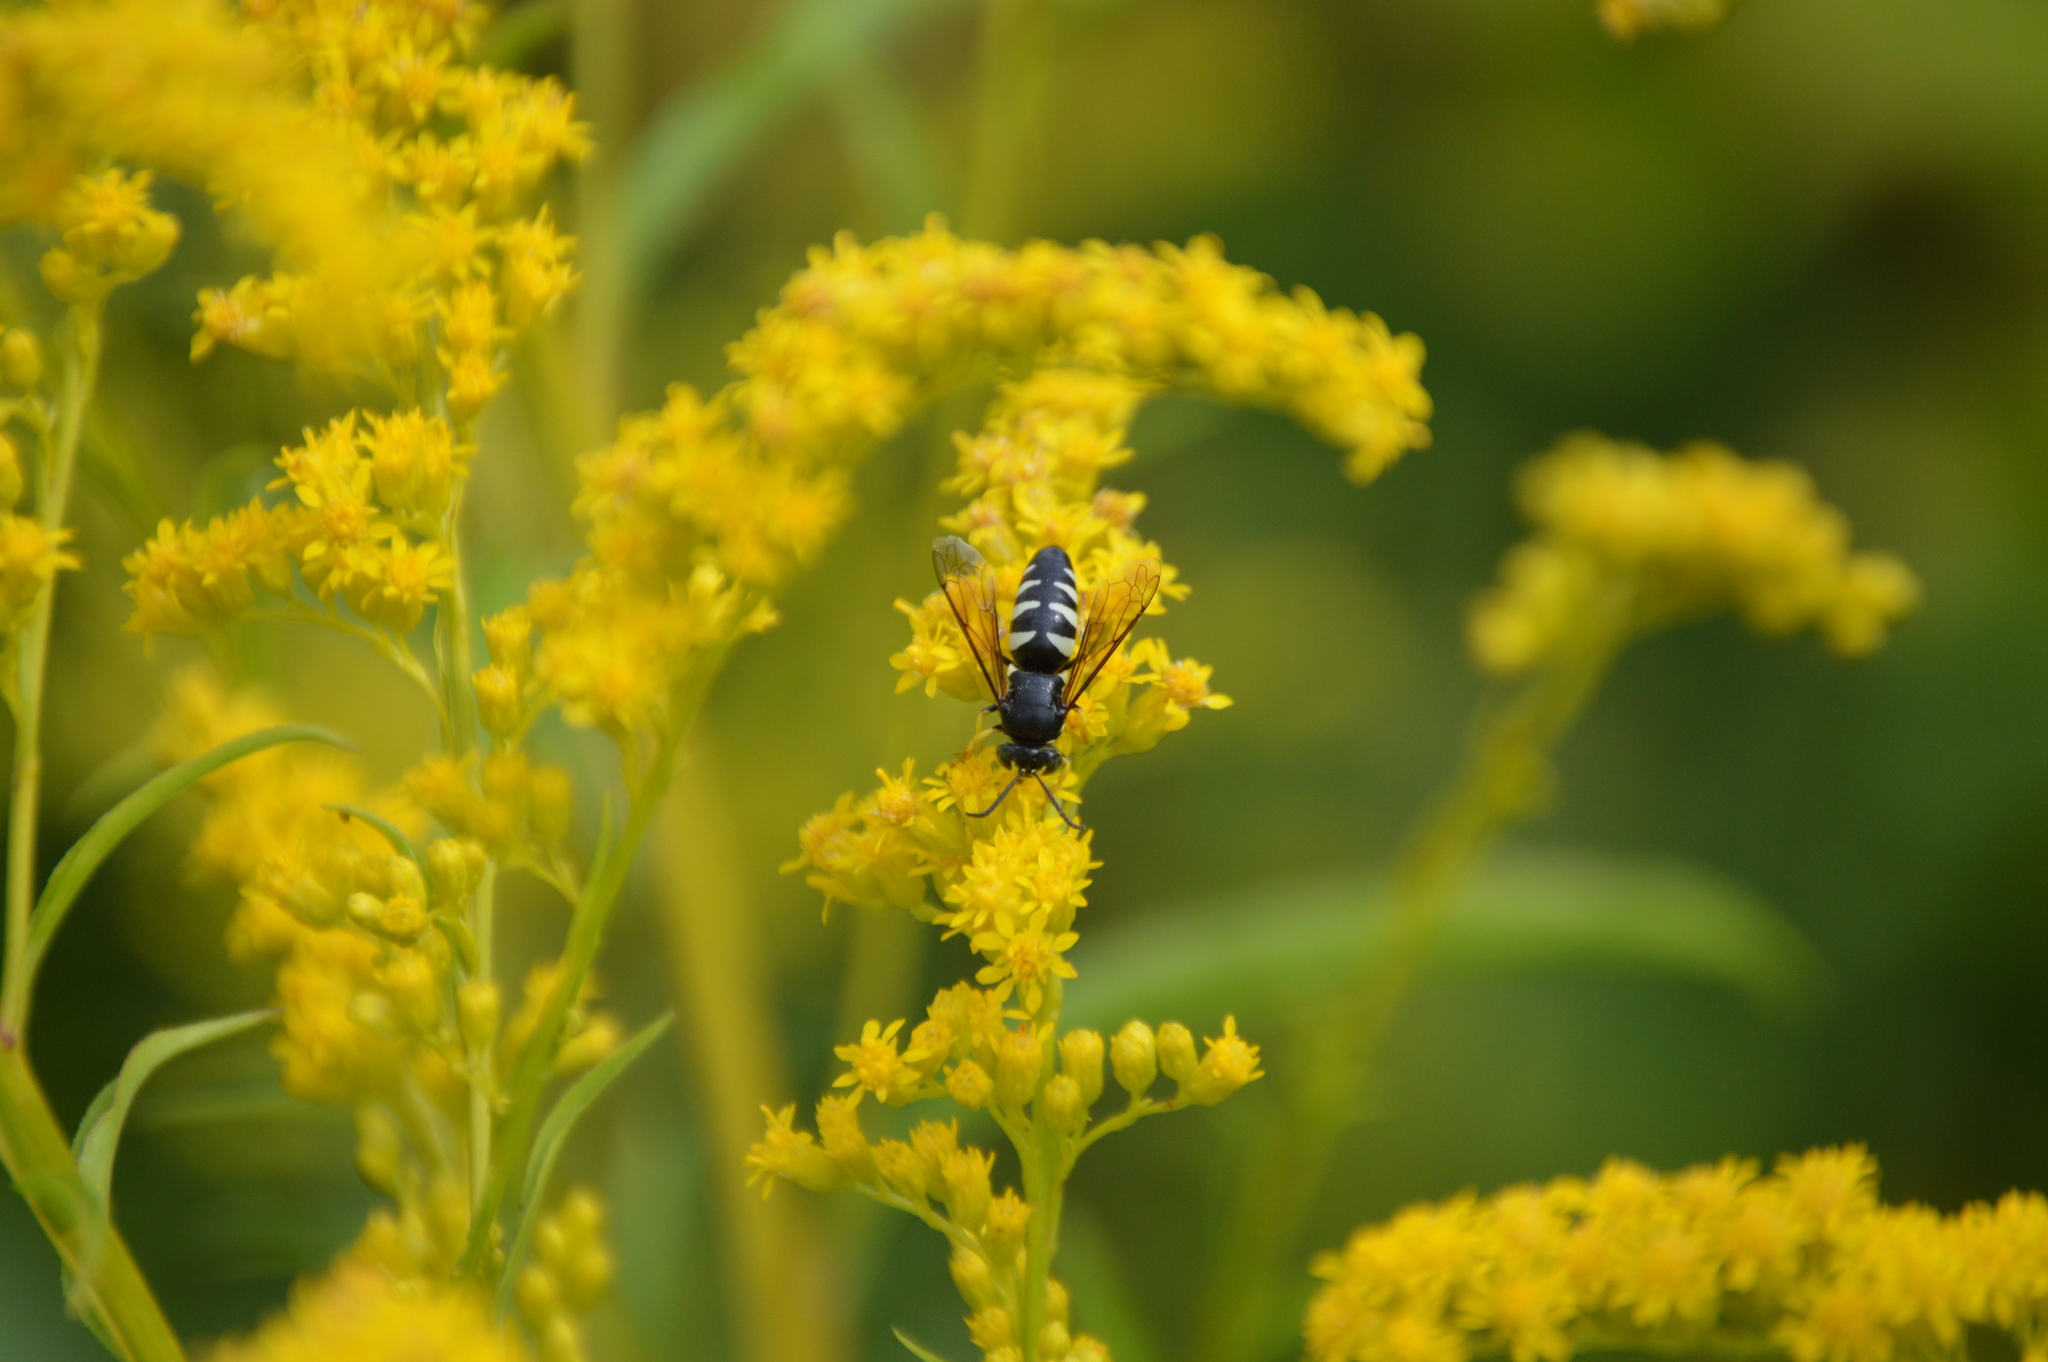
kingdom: Animalia
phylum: Arthropoda
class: Insecta
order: Hymenoptera
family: Crabronidae
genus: Bicyrtes
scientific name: Bicyrtes quadrifasciatus
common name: Four-banded stink bug hunter wasp
